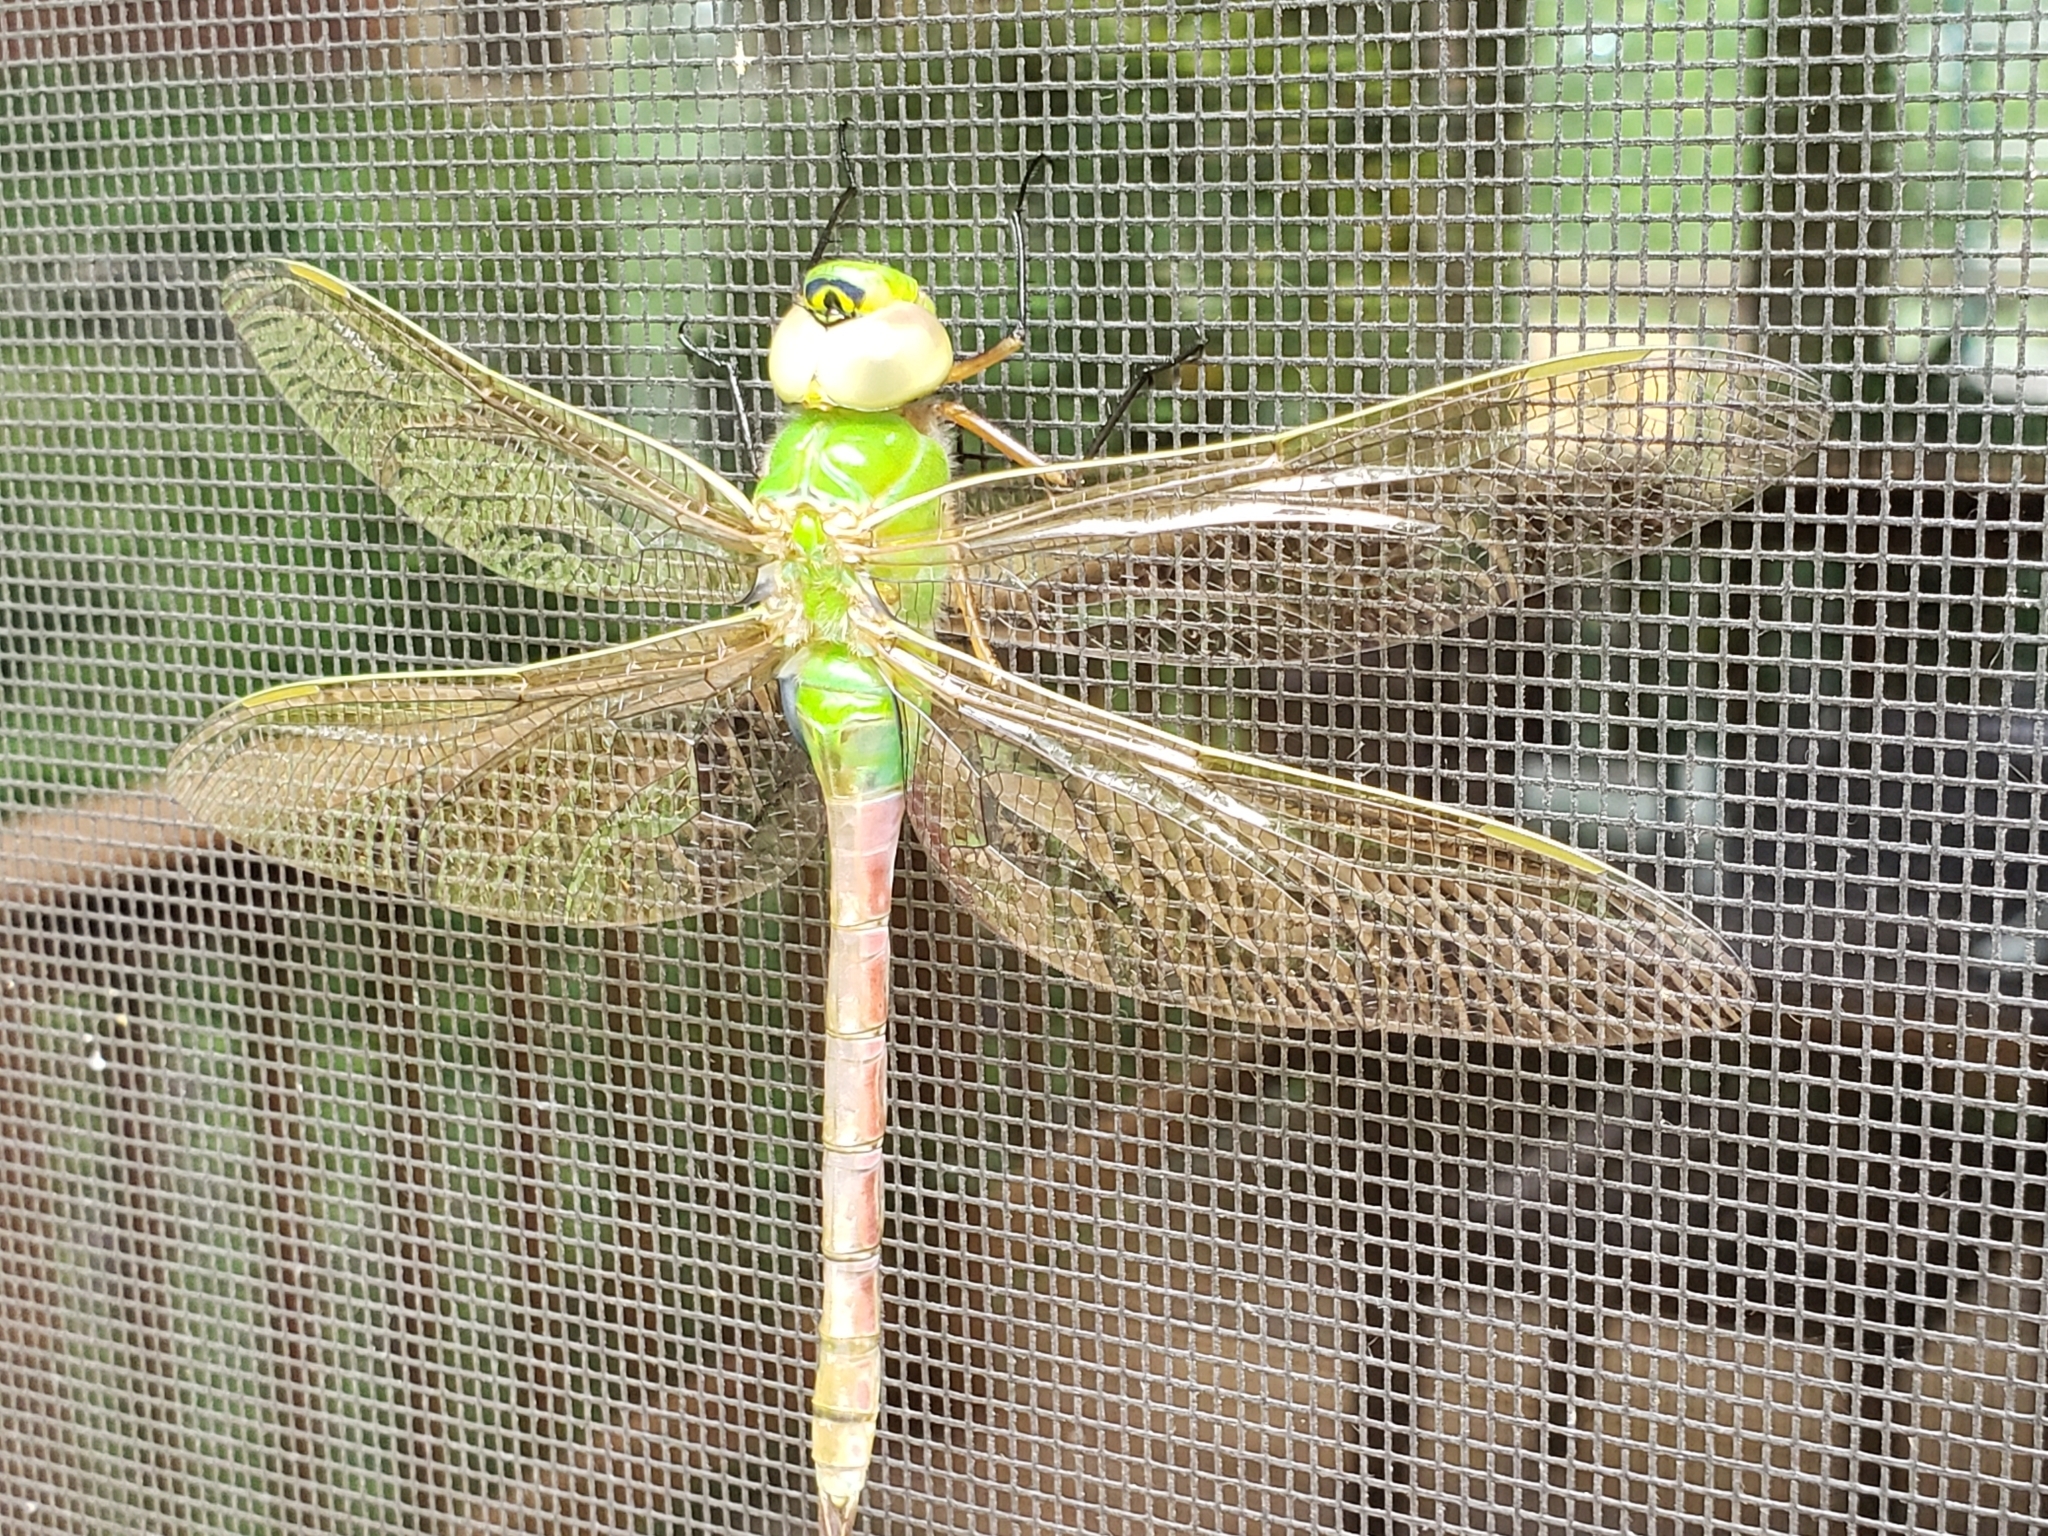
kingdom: Animalia
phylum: Arthropoda
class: Insecta
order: Odonata
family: Aeshnidae
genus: Anax
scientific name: Anax junius
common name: Common green darner
